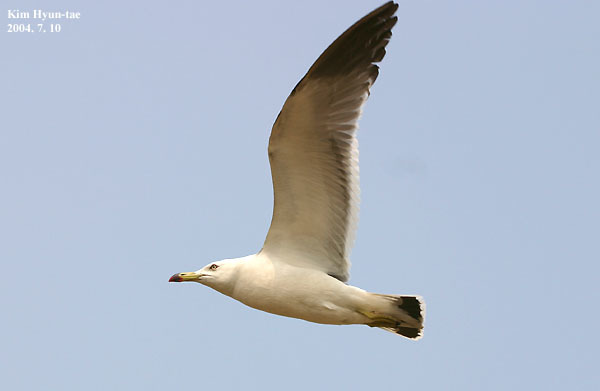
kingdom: Animalia
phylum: Chordata
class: Aves
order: Charadriiformes
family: Laridae
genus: Larus
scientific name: Larus crassirostris
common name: Black-tailed gull
